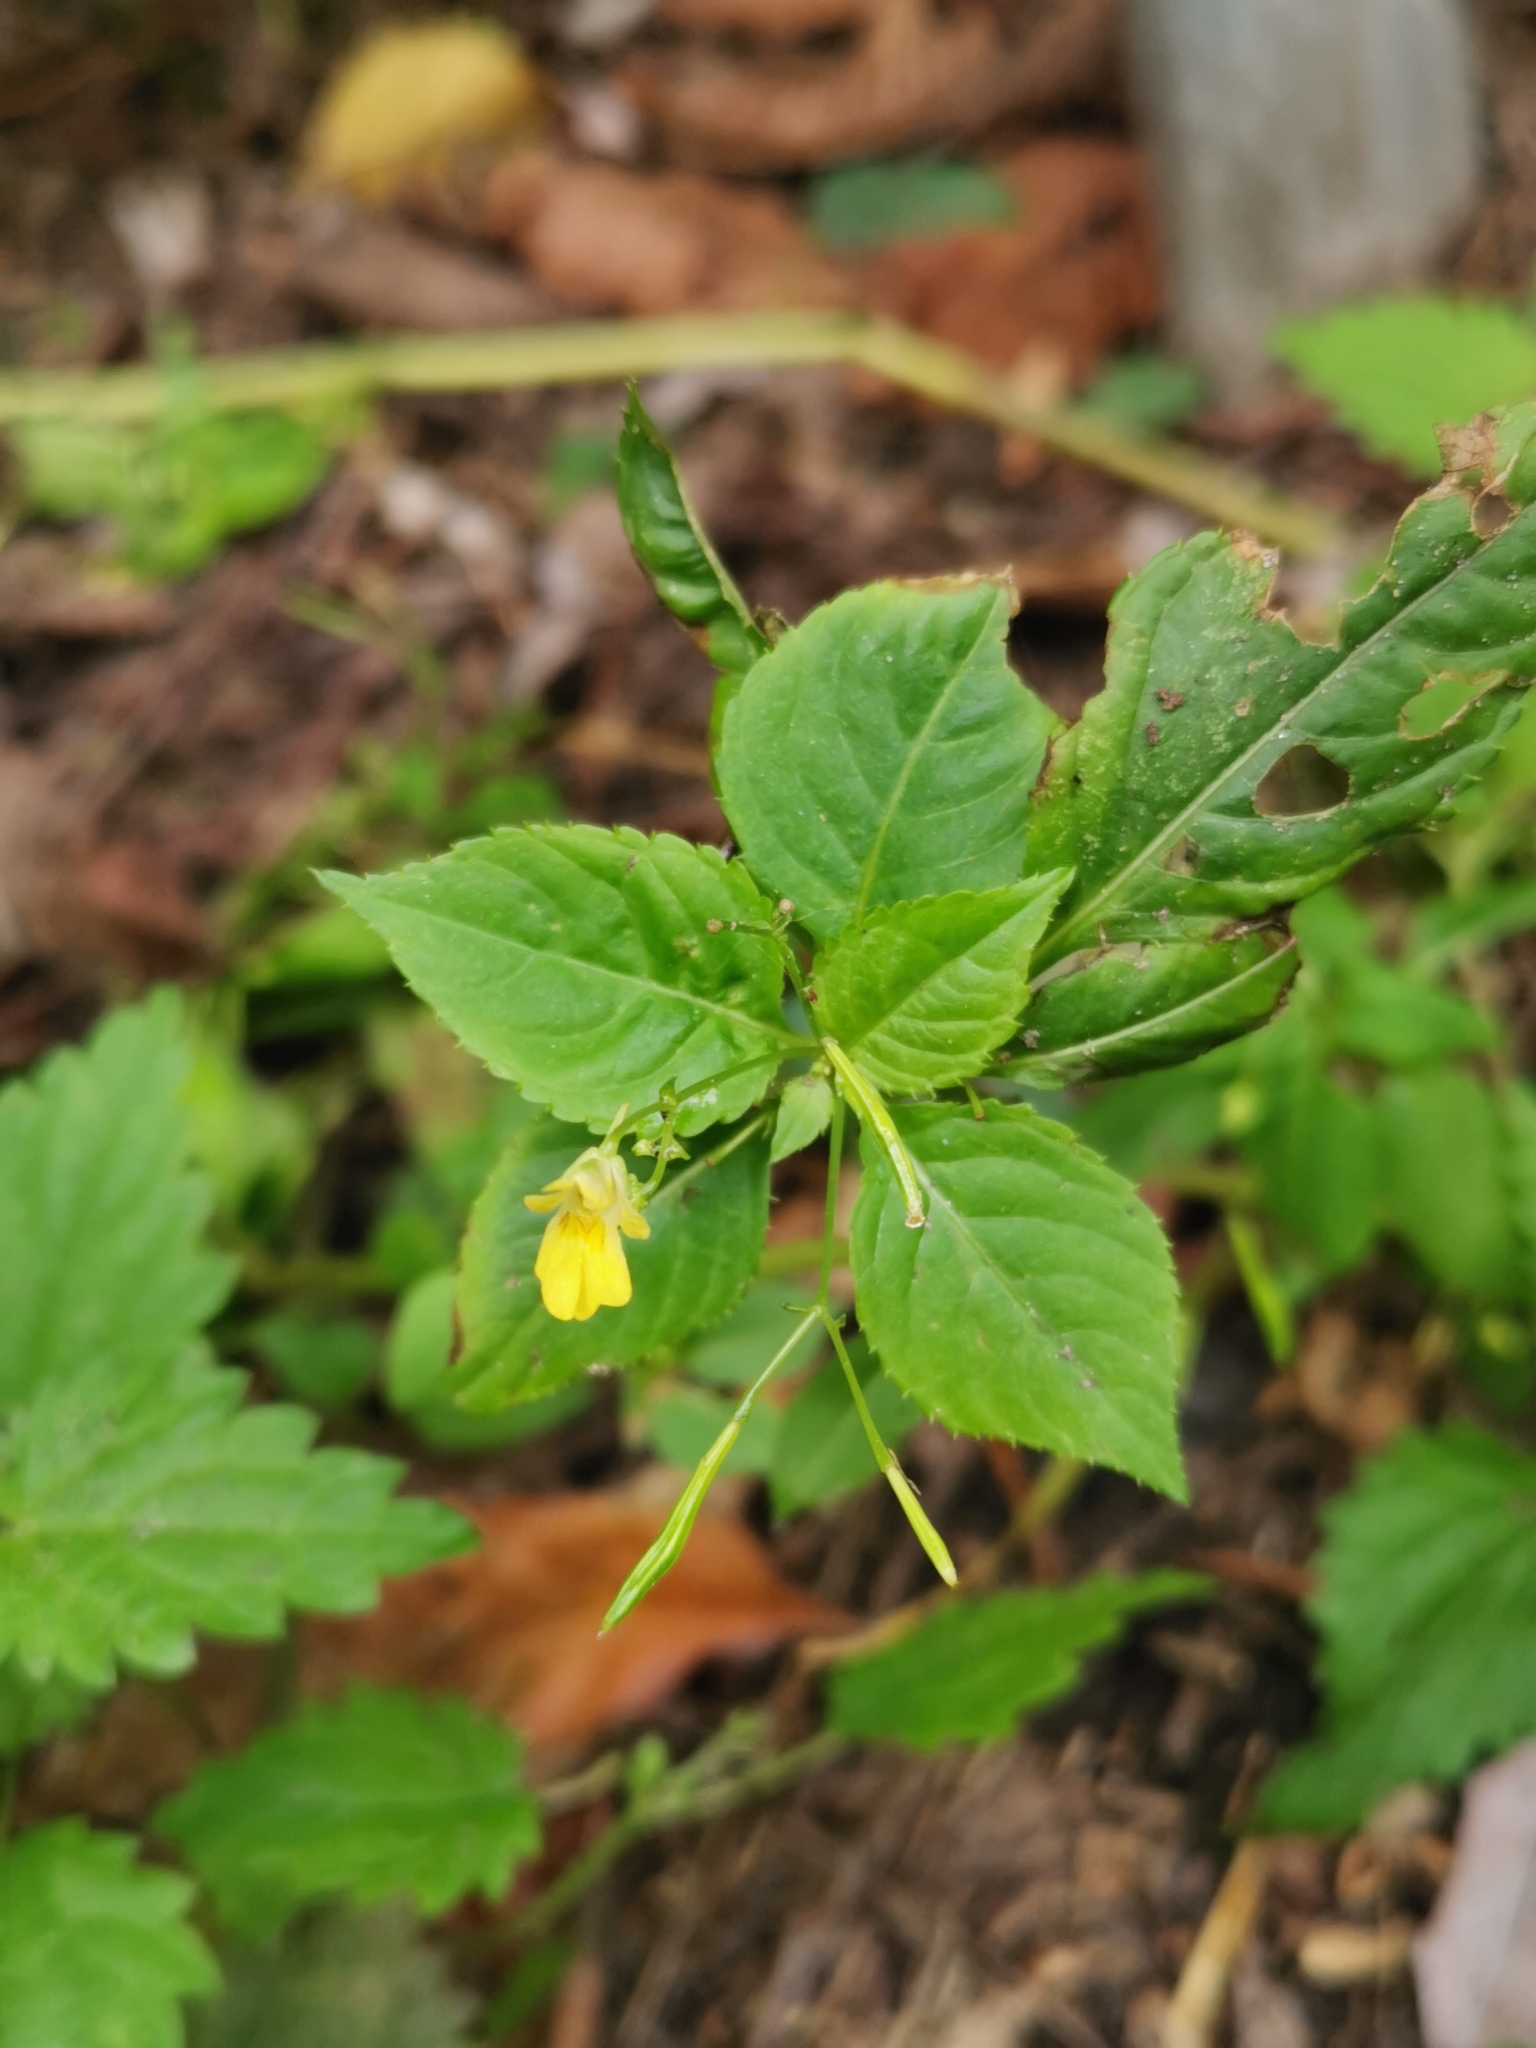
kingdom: Plantae
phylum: Tracheophyta
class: Magnoliopsida
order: Ericales
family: Balsaminaceae
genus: Impatiens
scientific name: Impatiens parviflora
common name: Small balsam
